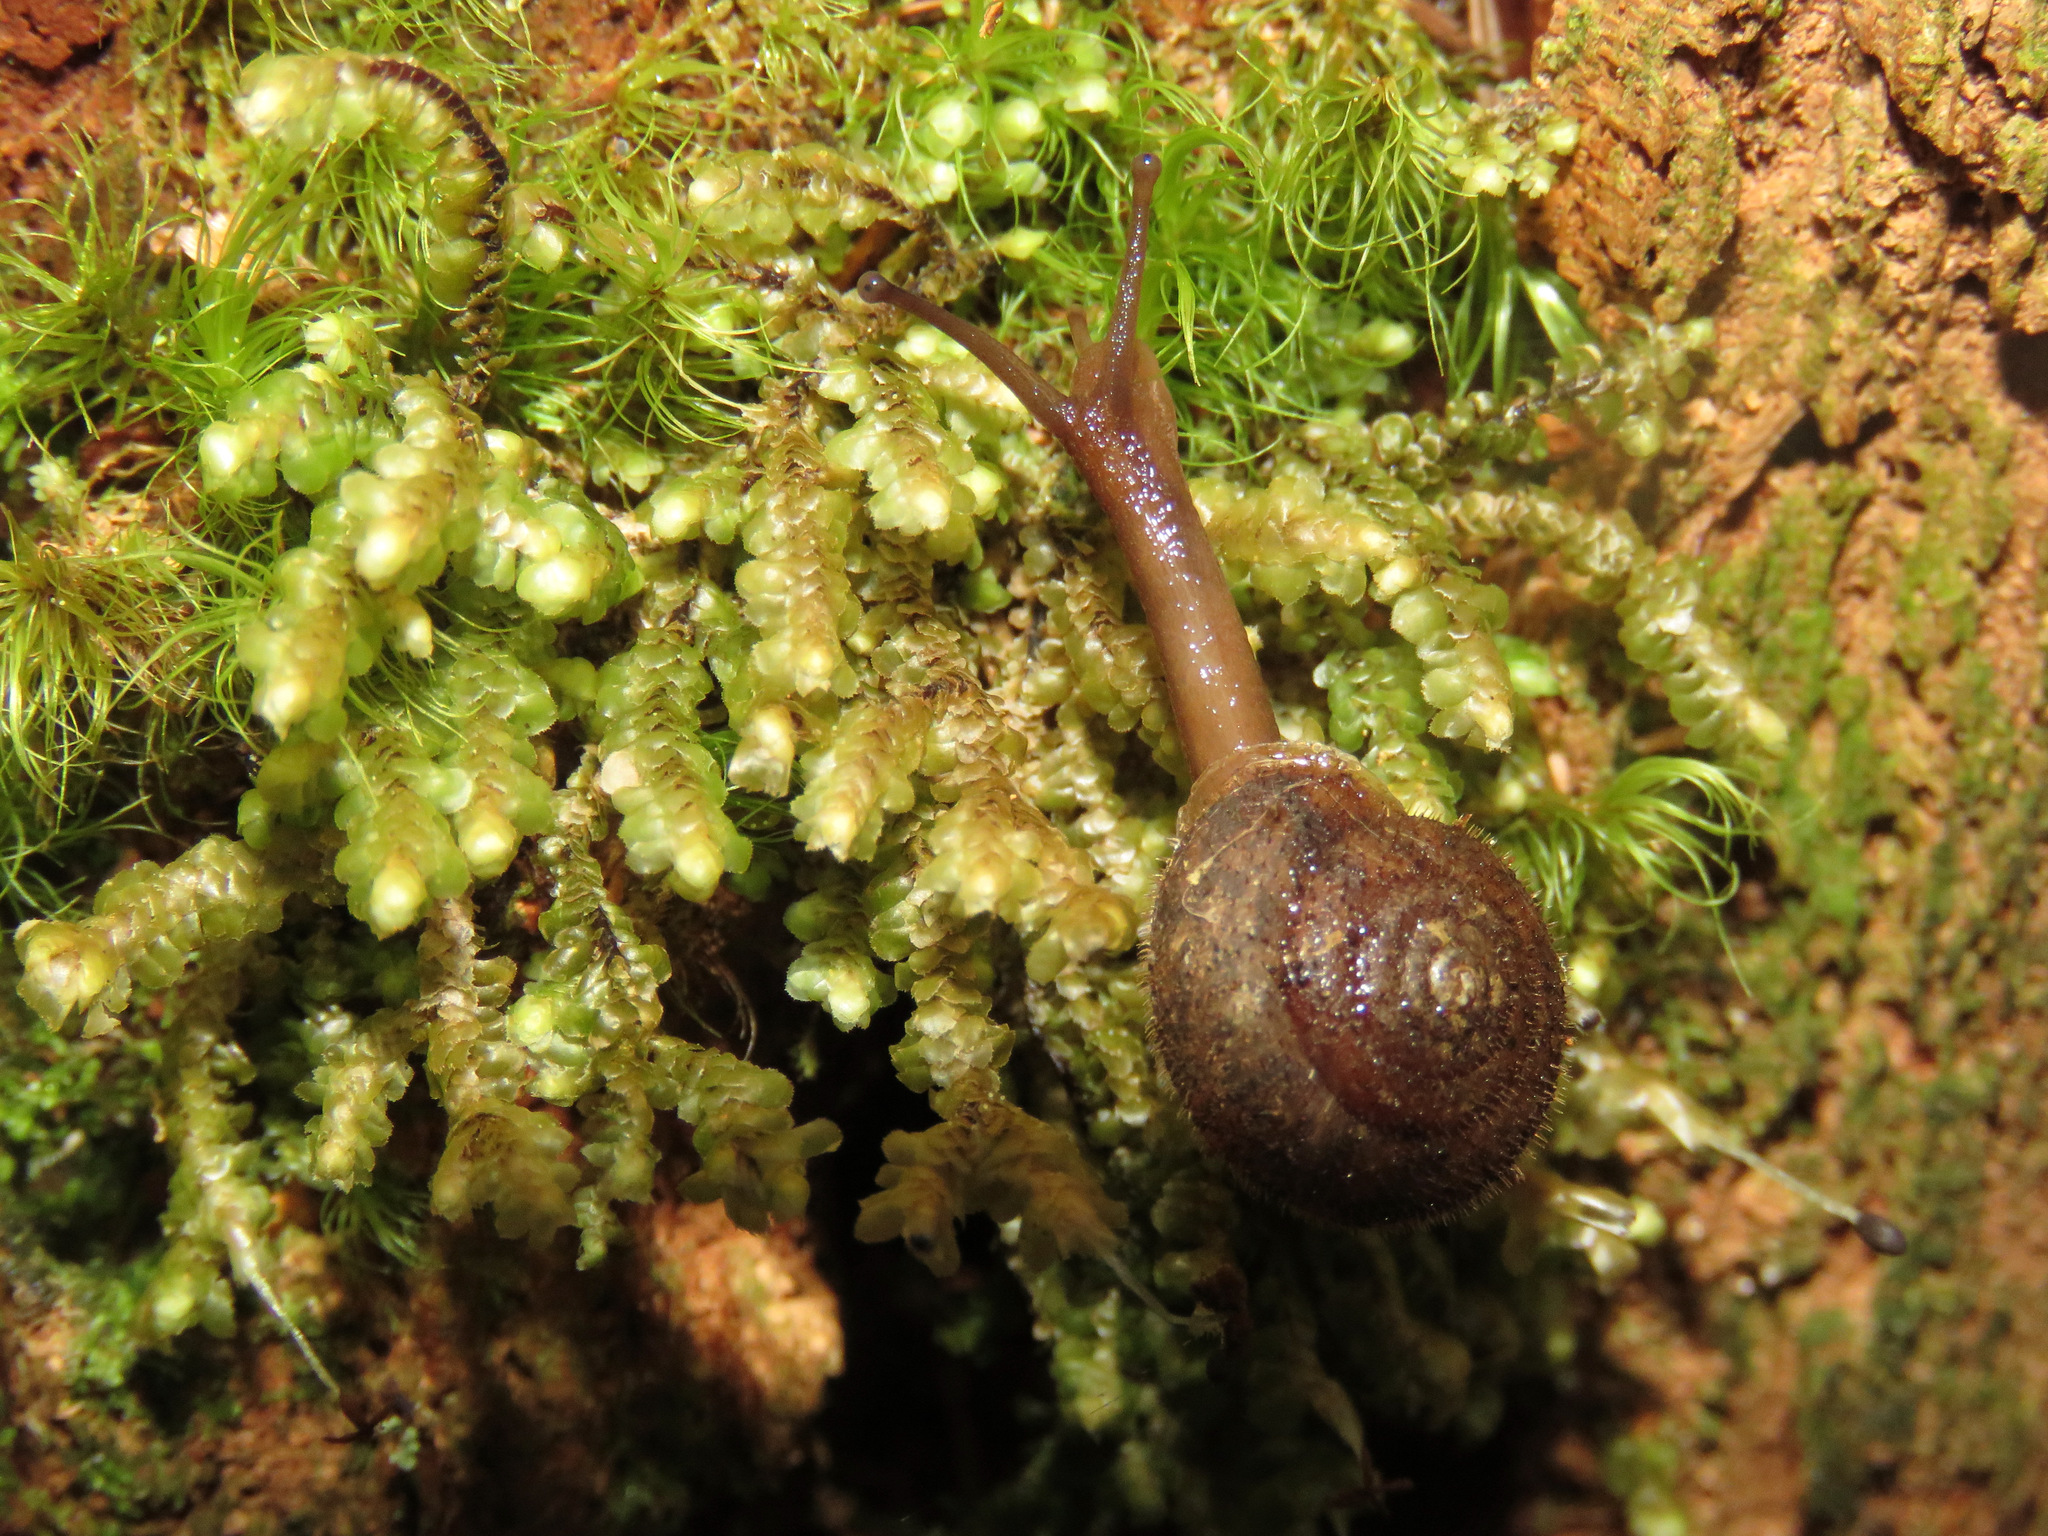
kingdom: Animalia
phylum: Mollusca
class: Gastropoda
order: Stylommatophora
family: Polygyridae
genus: Vespericola
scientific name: Vespericola columbianus
